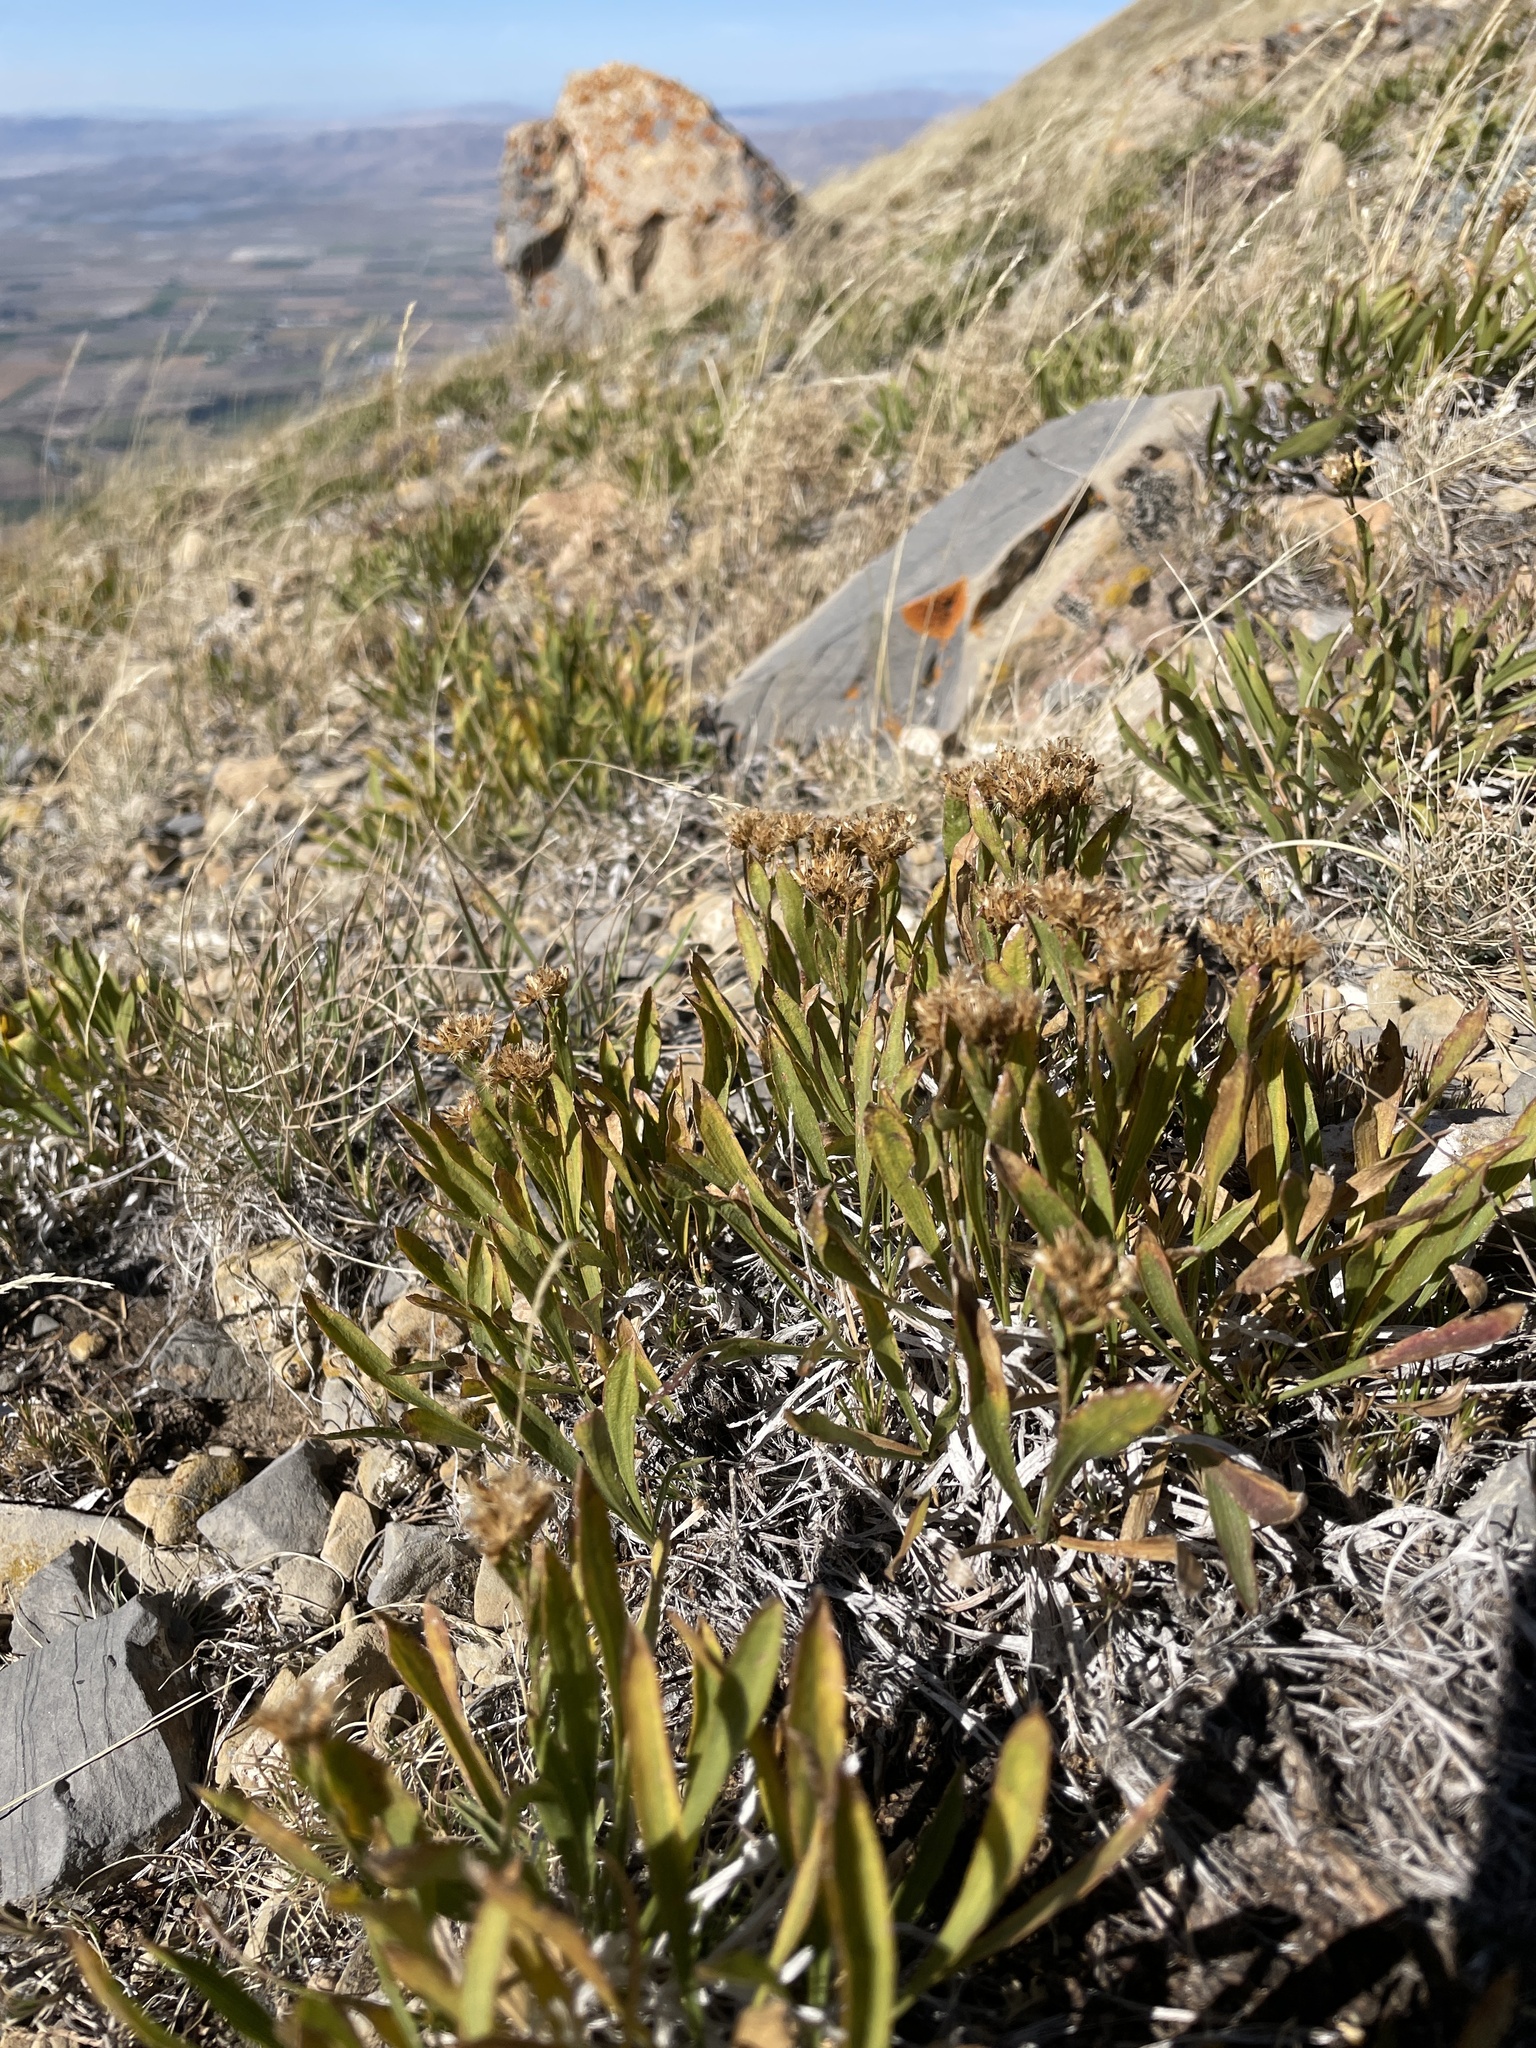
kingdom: Plantae
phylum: Tracheophyta
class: Magnoliopsida
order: Asterales
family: Asteraceae
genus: Petradoria
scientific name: Petradoria pumila
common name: Rock-goldenrod
